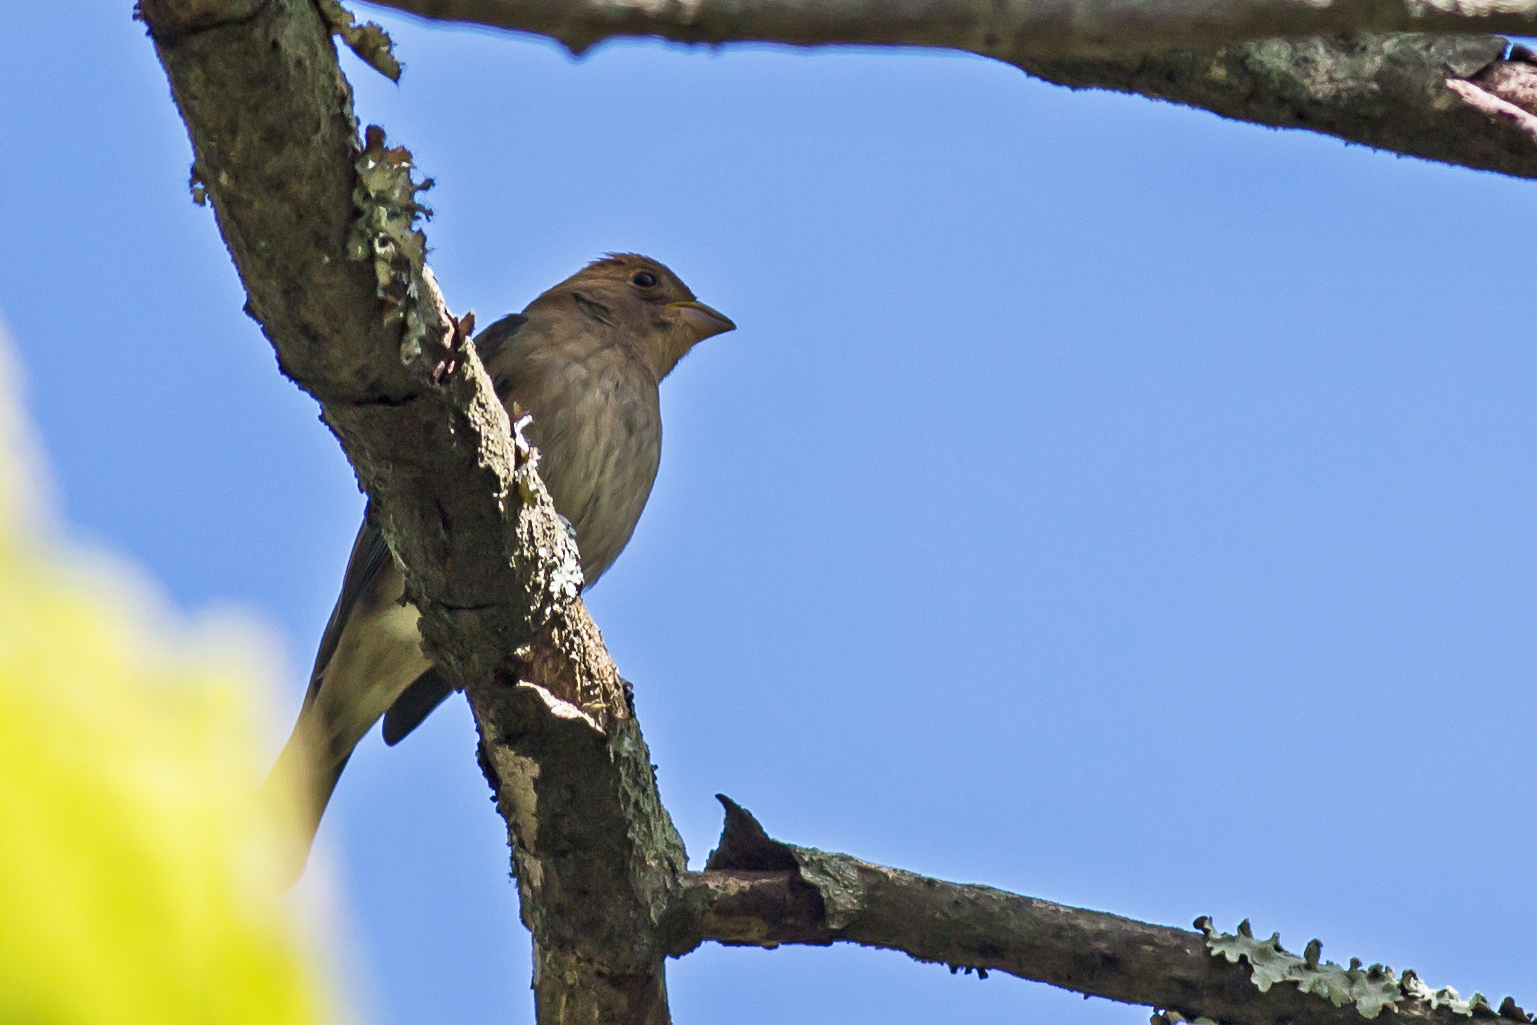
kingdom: Animalia
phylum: Chordata
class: Aves
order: Passeriformes
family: Cardinalidae
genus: Passerina
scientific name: Passerina cyanea
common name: Indigo bunting
